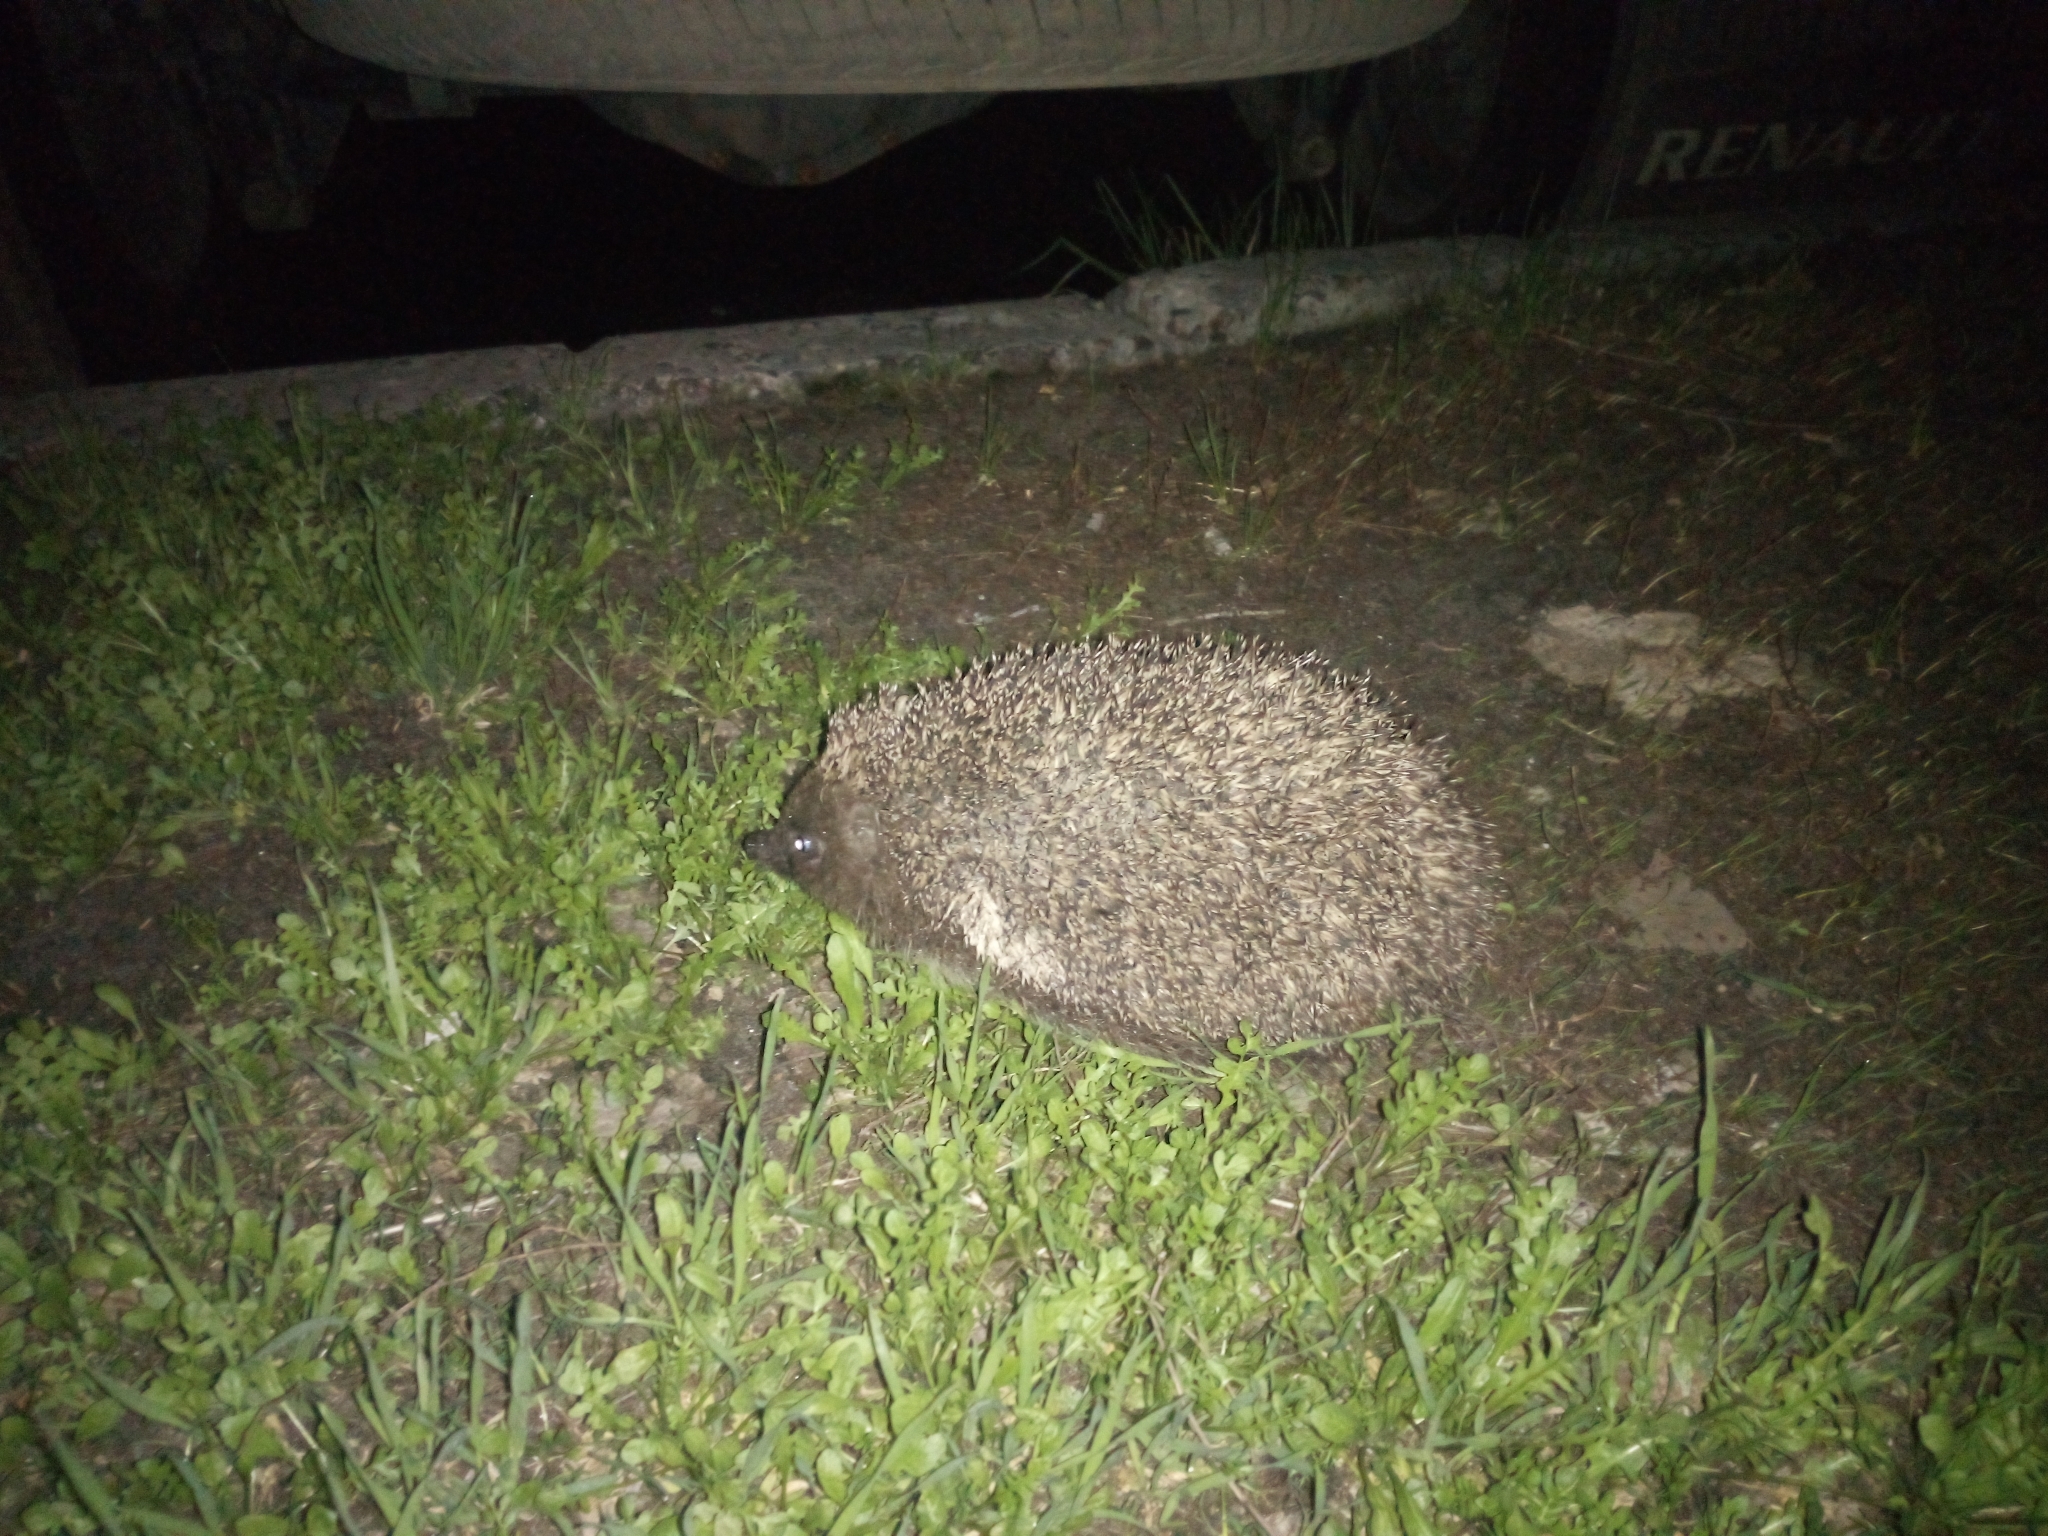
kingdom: Animalia
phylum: Chordata
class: Mammalia
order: Erinaceomorpha
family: Erinaceidae
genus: Erinaceus
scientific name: Erinaceus roumanicus
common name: Northern white-breasted hedgehog
